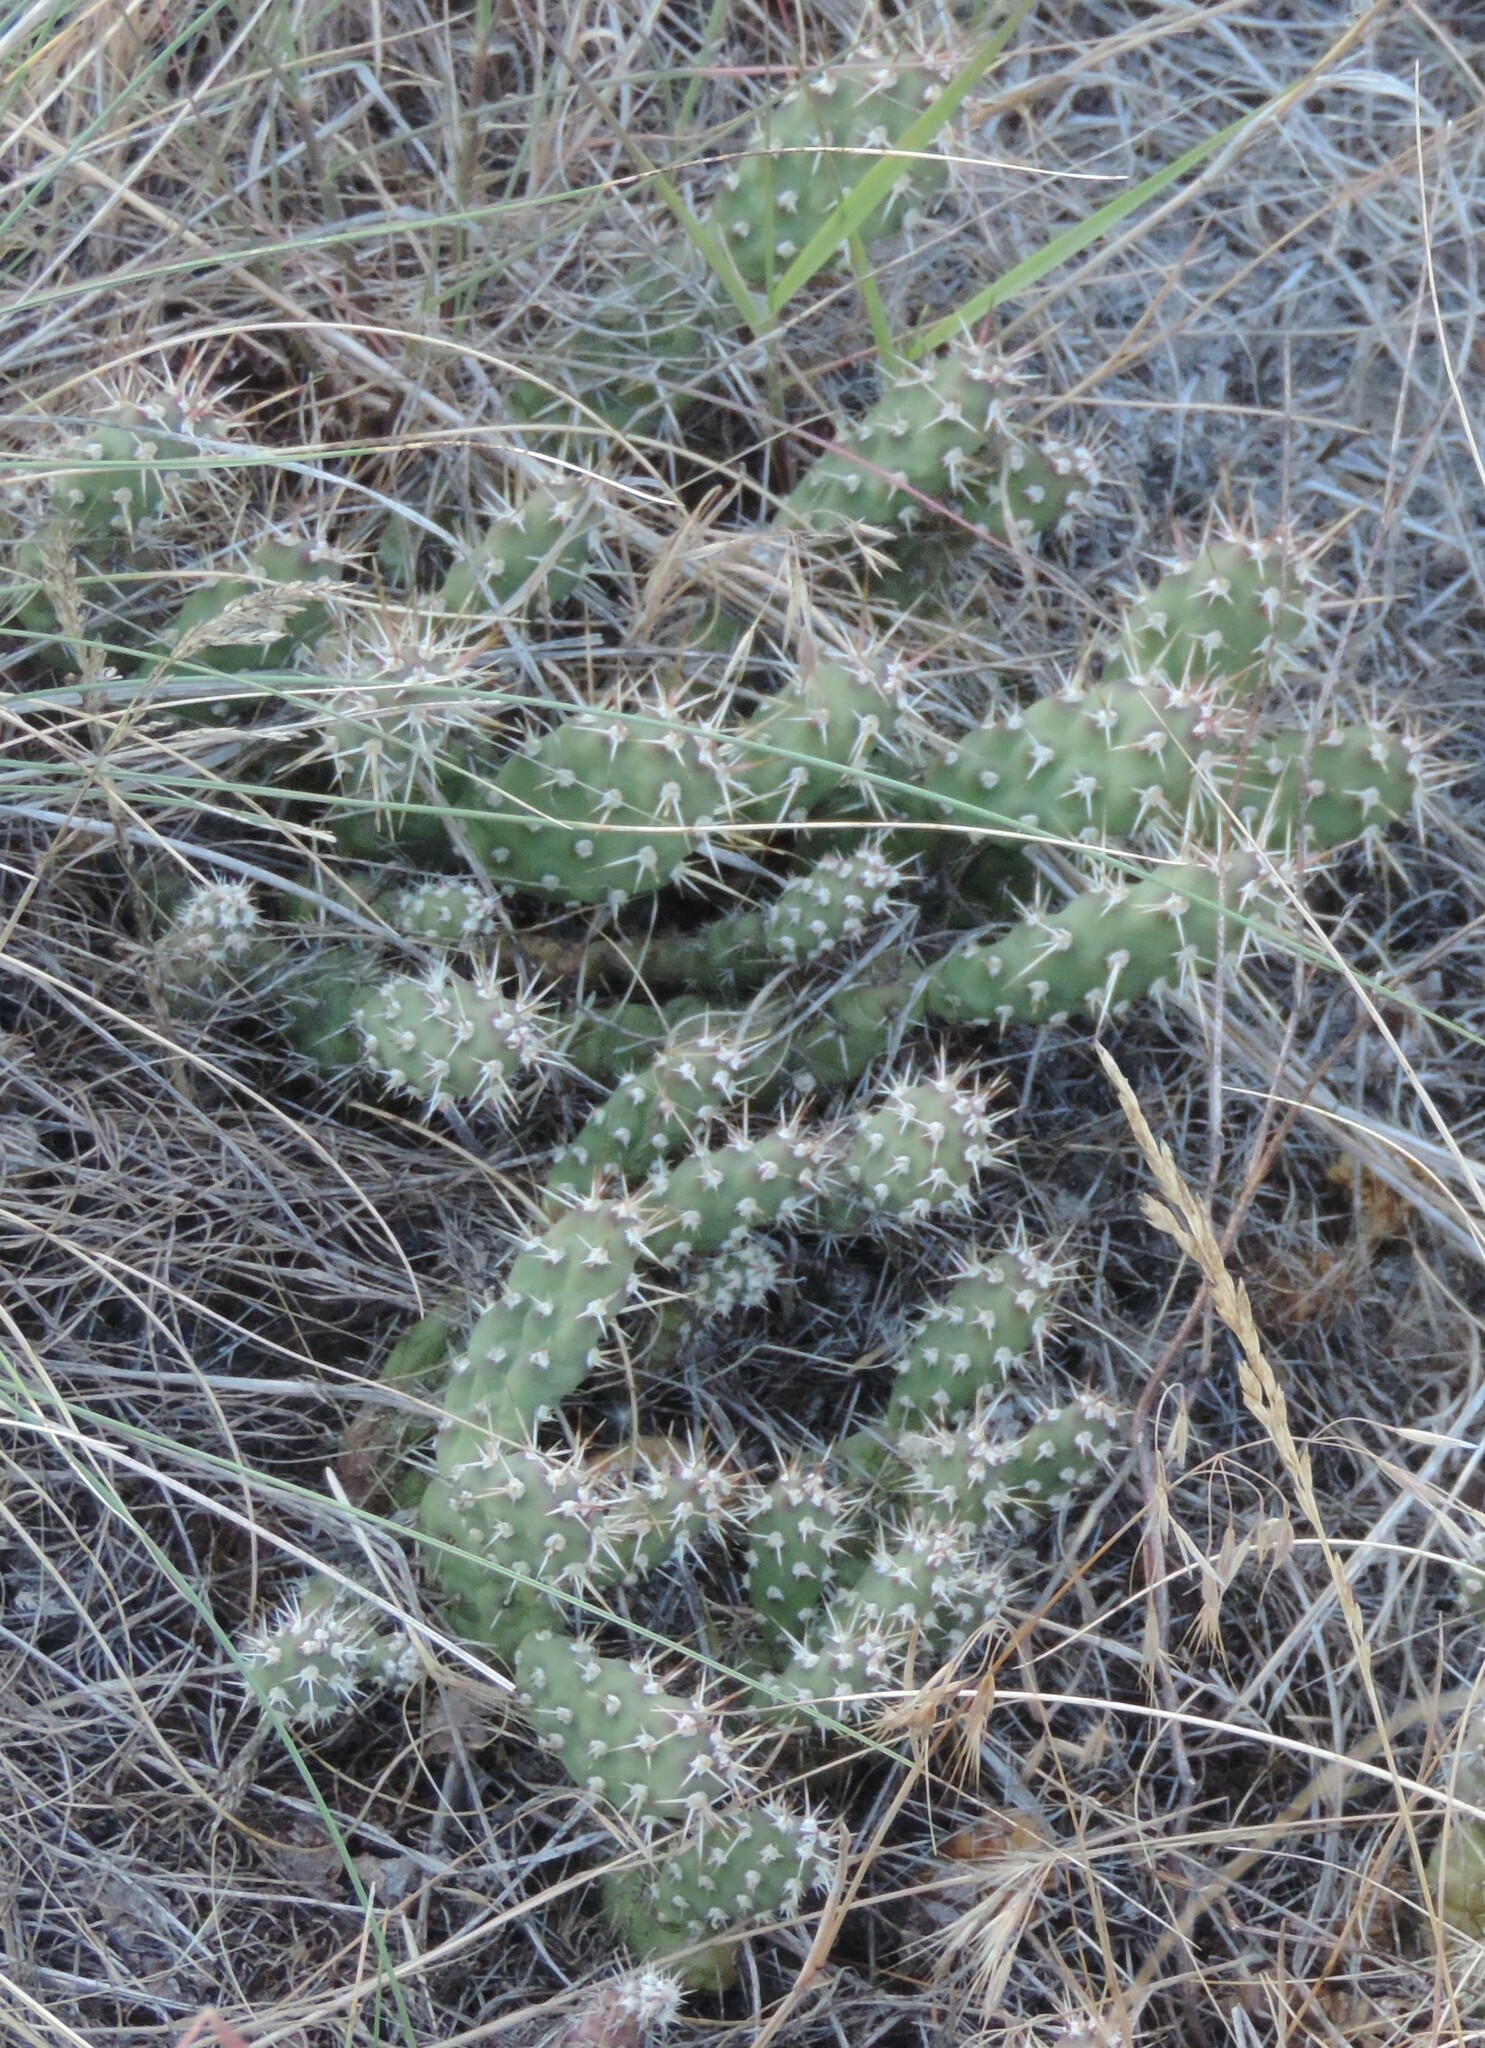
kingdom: Plantae
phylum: Tracheophyta
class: Magnoliopsida
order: Caryophyllales
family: Cactaceae
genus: Opuntia
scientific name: Opuntia fragilis
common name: Brittle cactus
